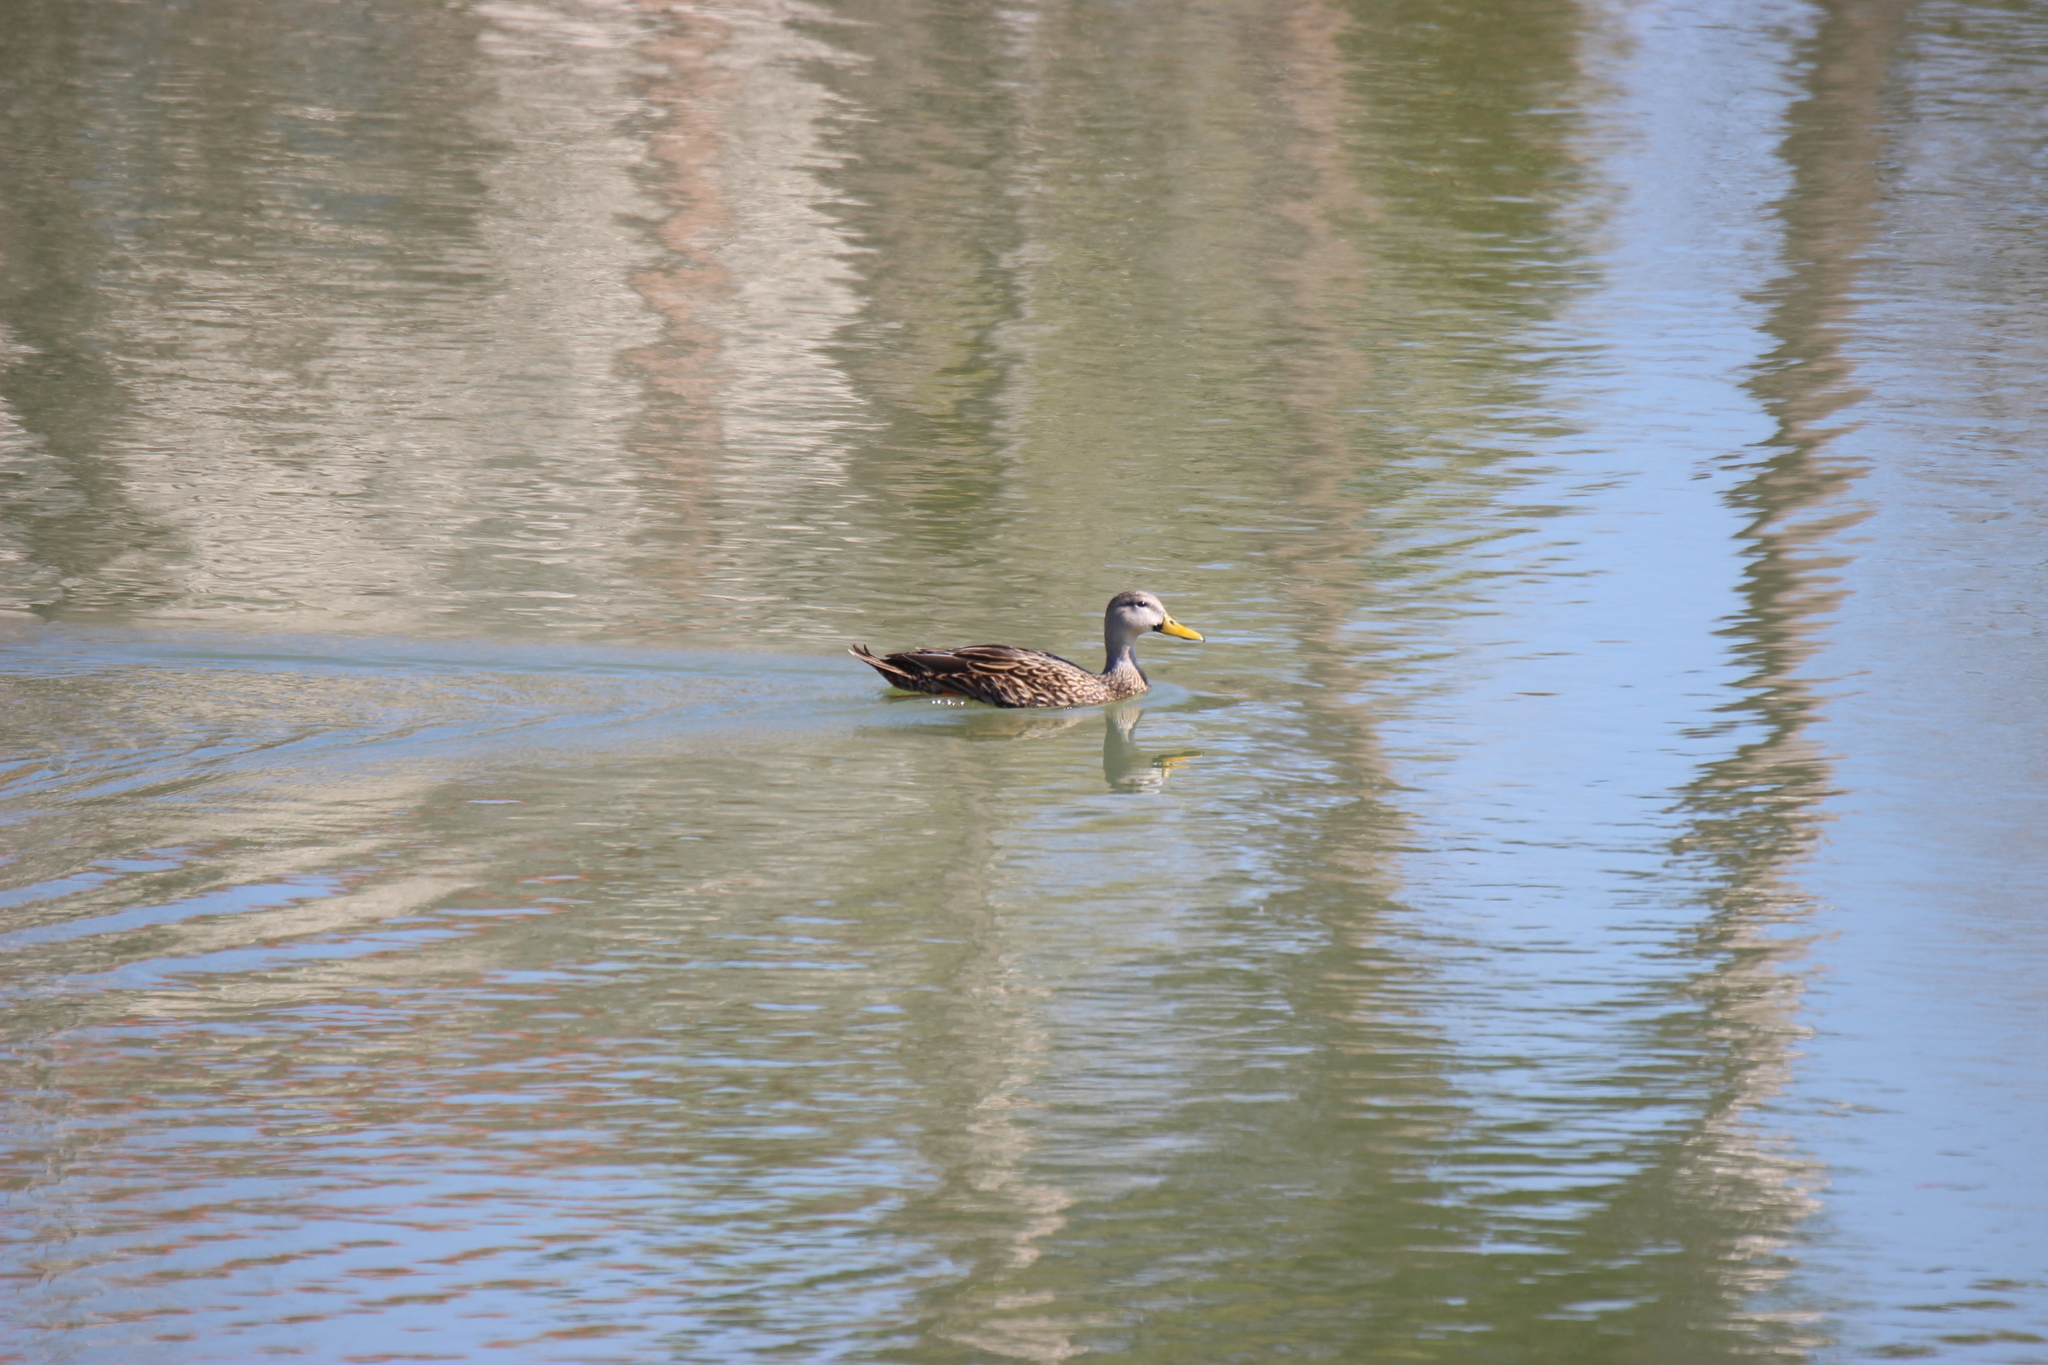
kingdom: Animalia
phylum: Chordata
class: Aves
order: Anseriformes
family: Anatidae
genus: Anas
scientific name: Anas
